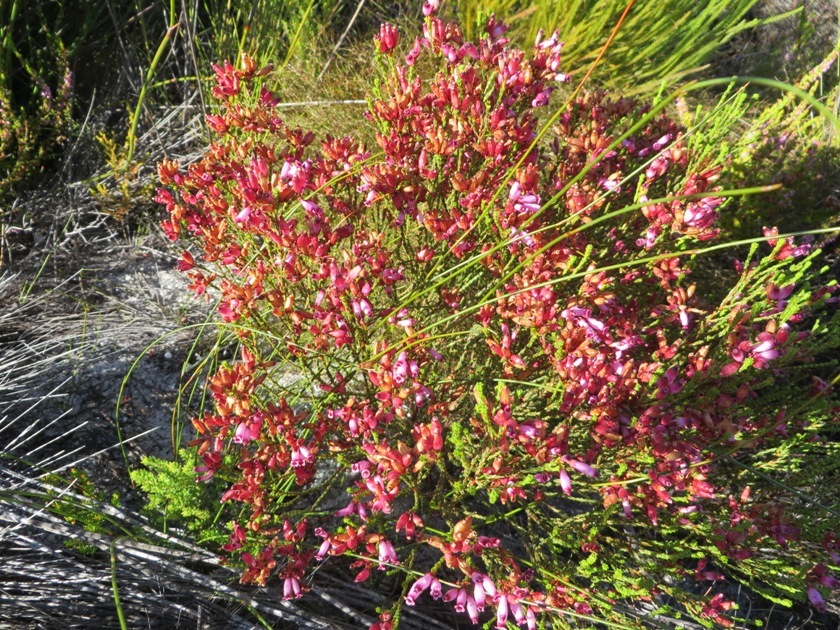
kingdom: Plantae
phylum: Tracheophyta
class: Magnoliopsida
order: Ericales
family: Ericaceae
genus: Erica
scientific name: Erica cristata
